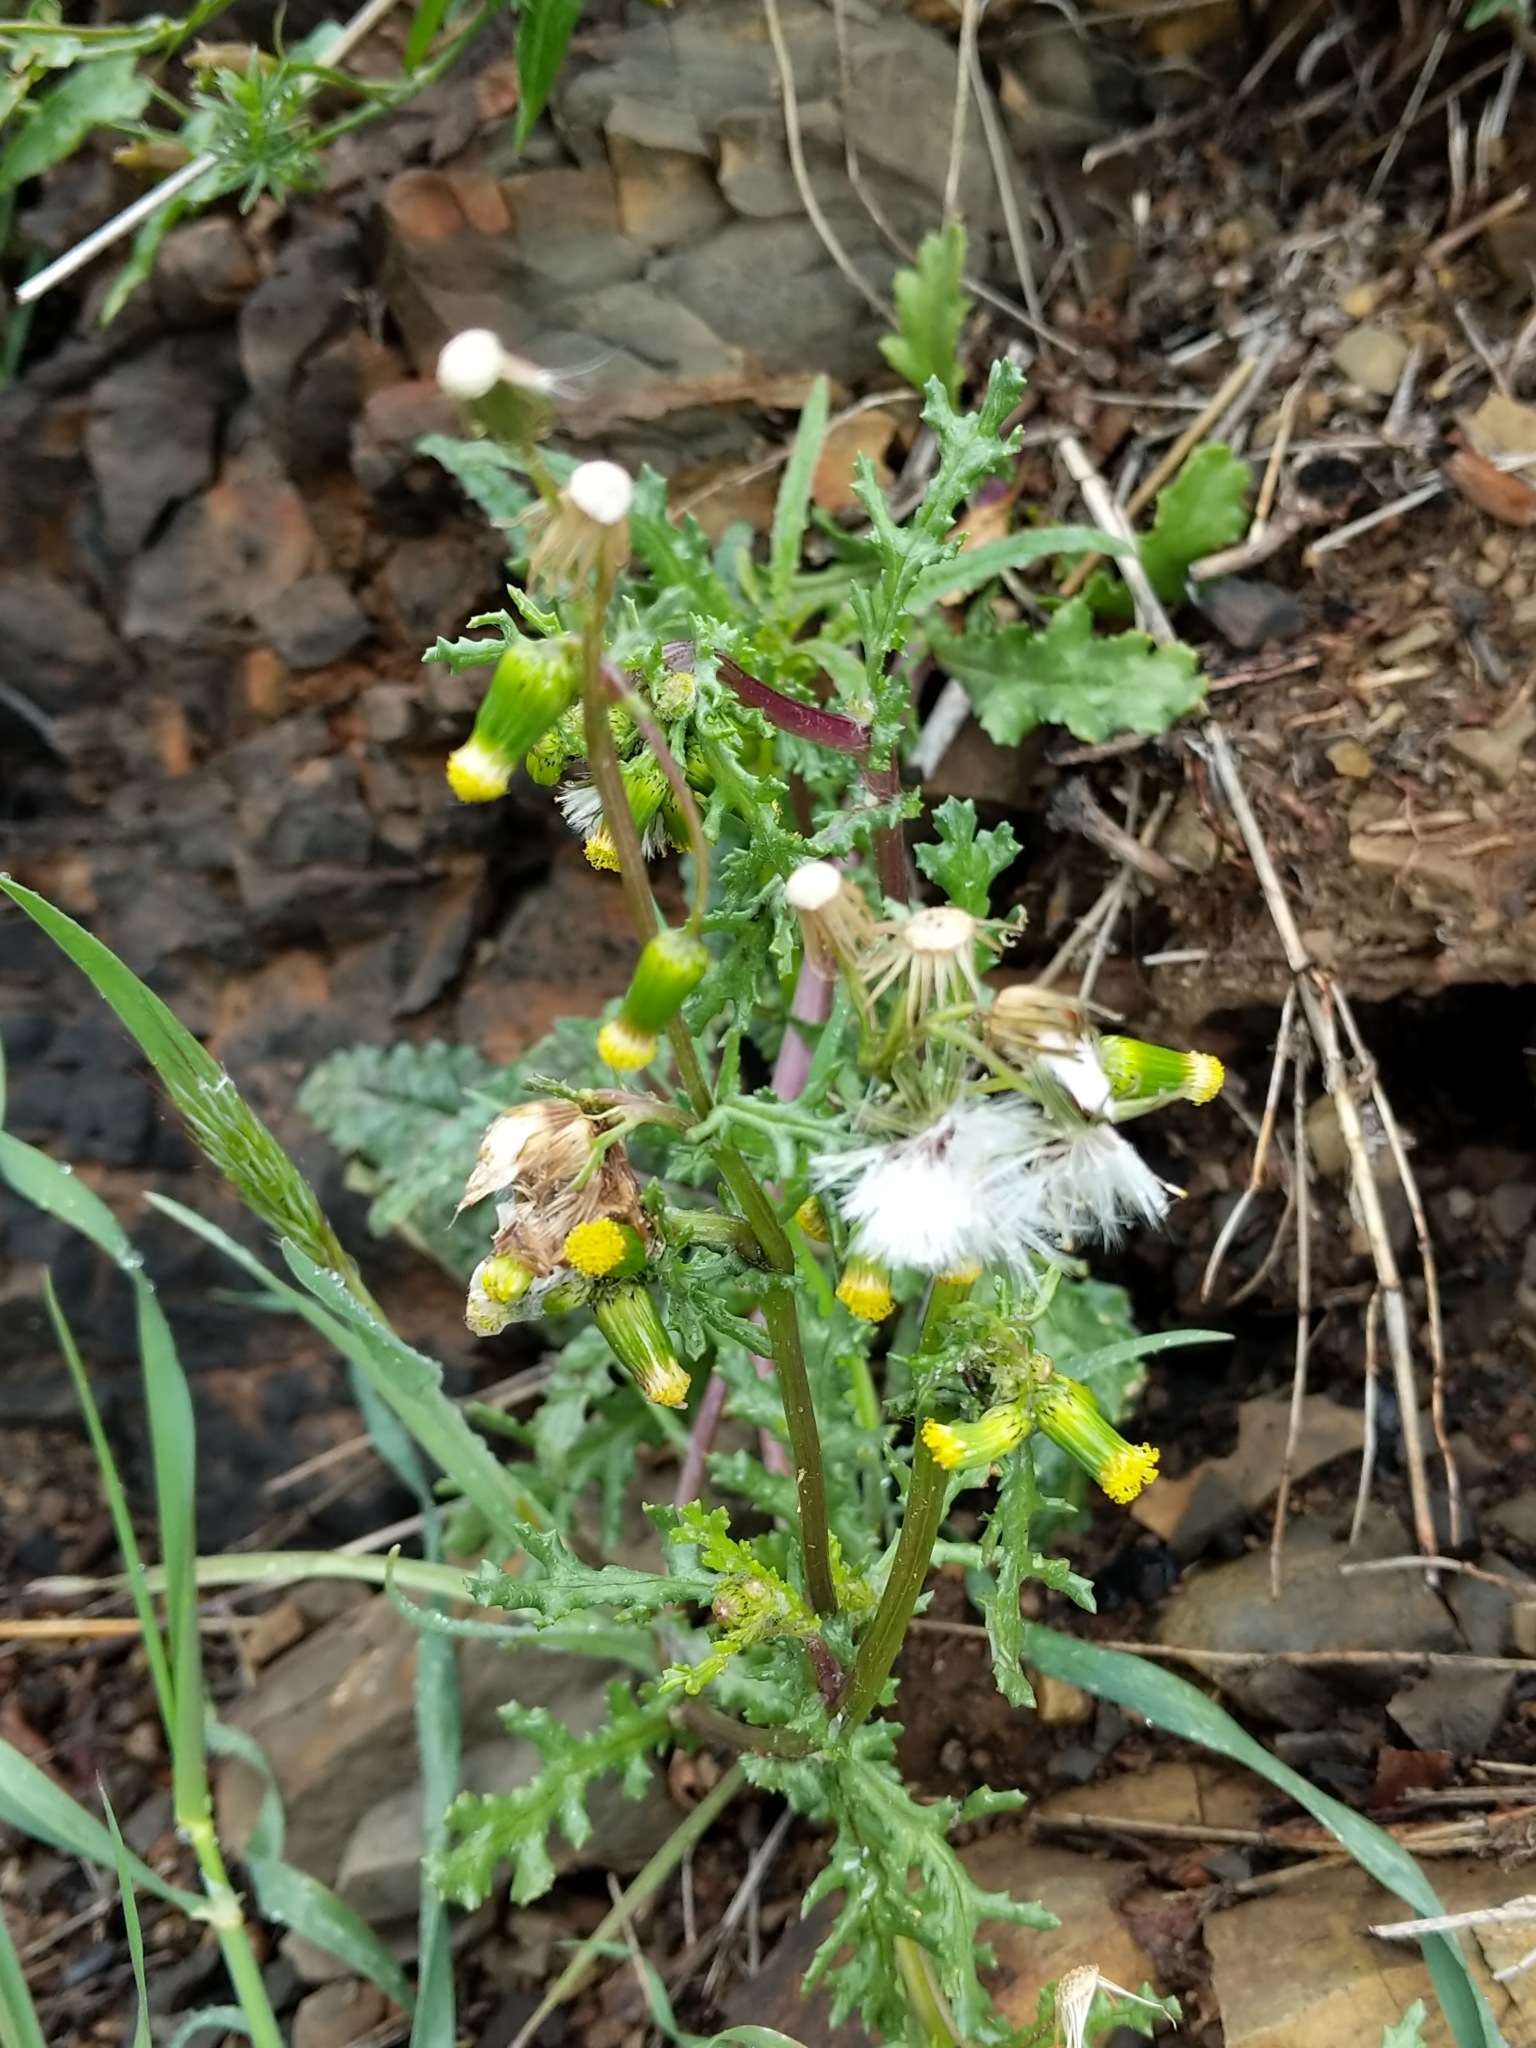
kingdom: Plantae
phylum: Tracheophyta
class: Magnoliopsida
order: Asterales
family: Asteraceae
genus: Senecio
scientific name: Senecio vulgaris
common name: Old-man-in-the-spring
